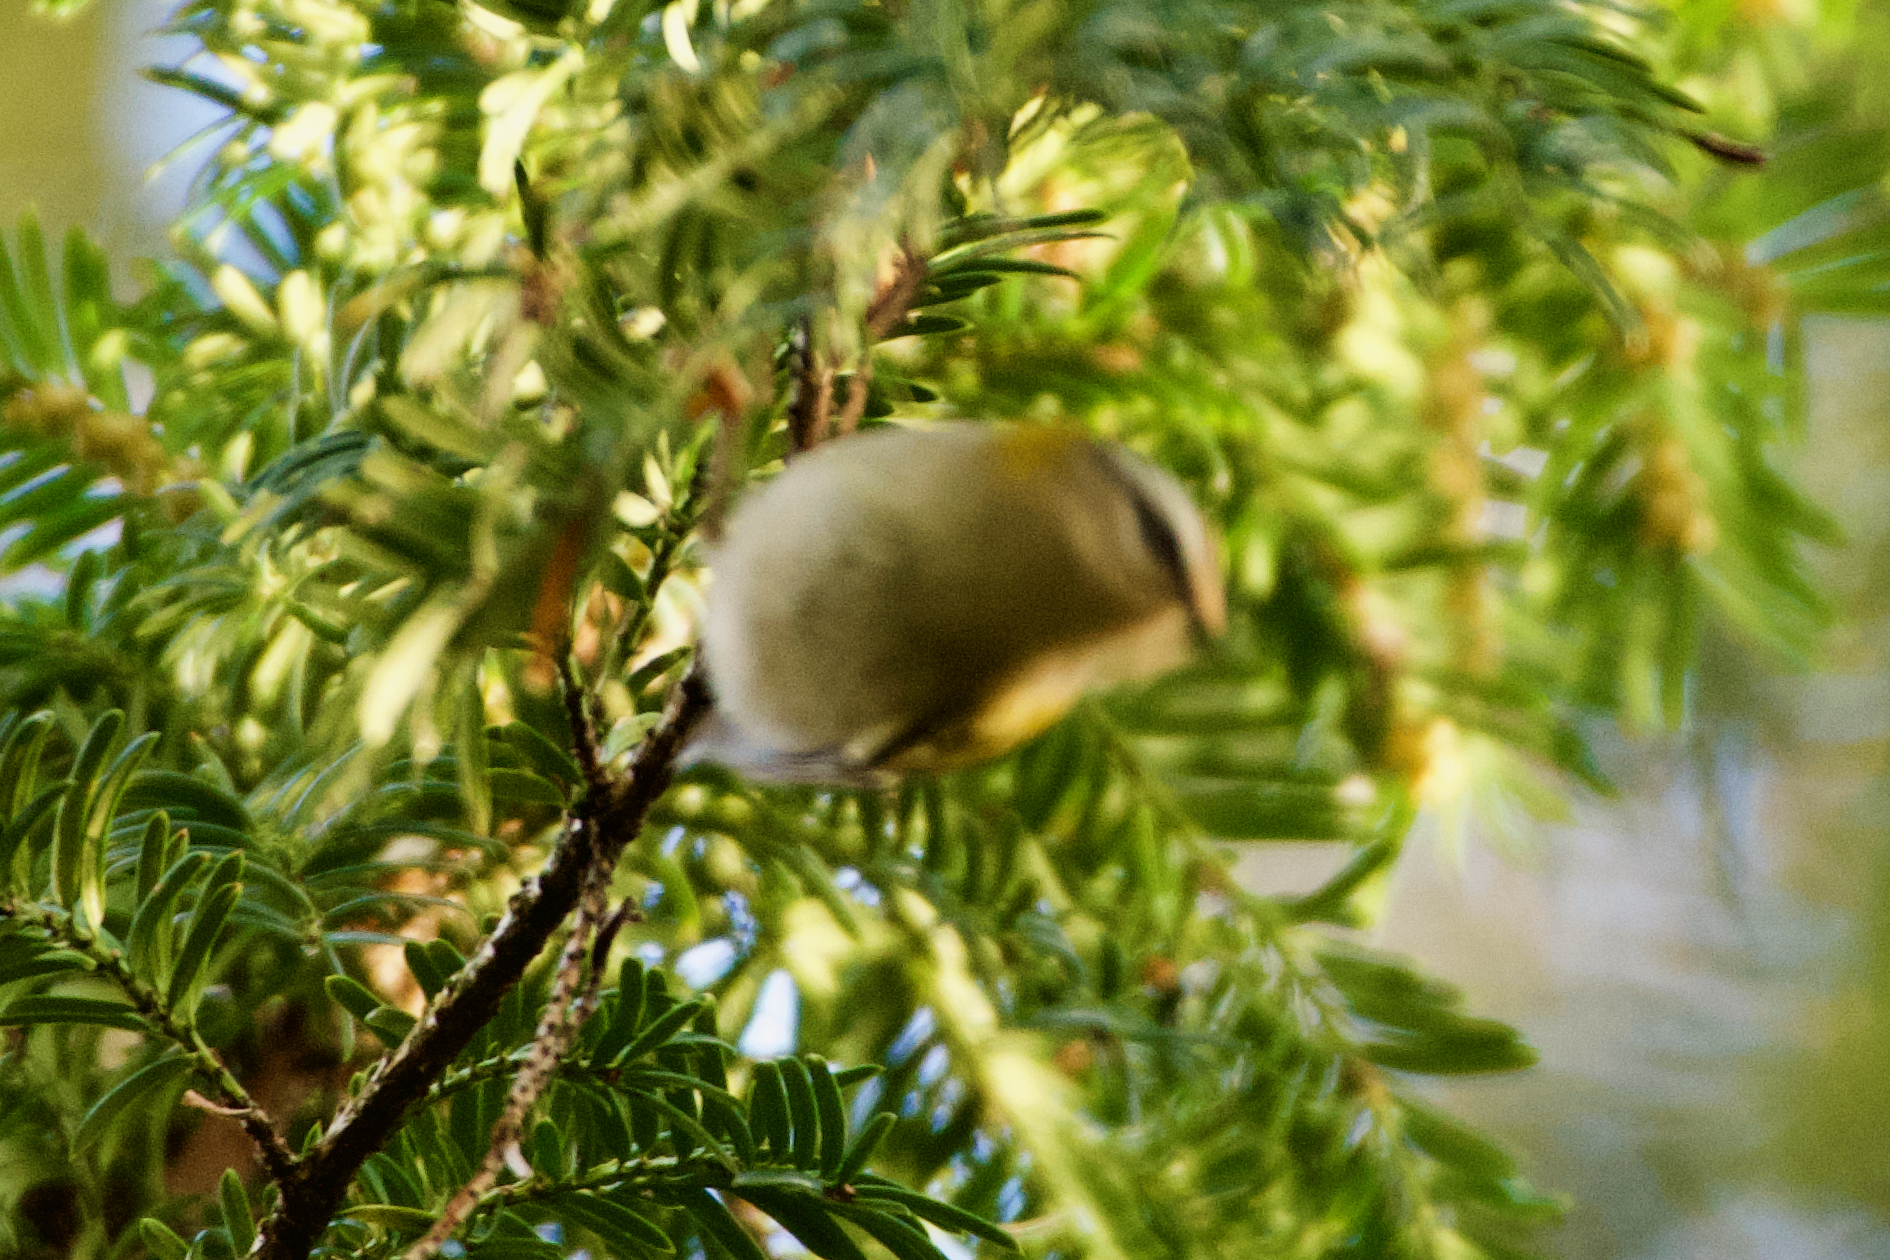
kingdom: Animalia
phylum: Chordata
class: Aves
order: Passeriformes
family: Regulidae
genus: Regulus
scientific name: Regulus ignicapilla
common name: Firecrest
